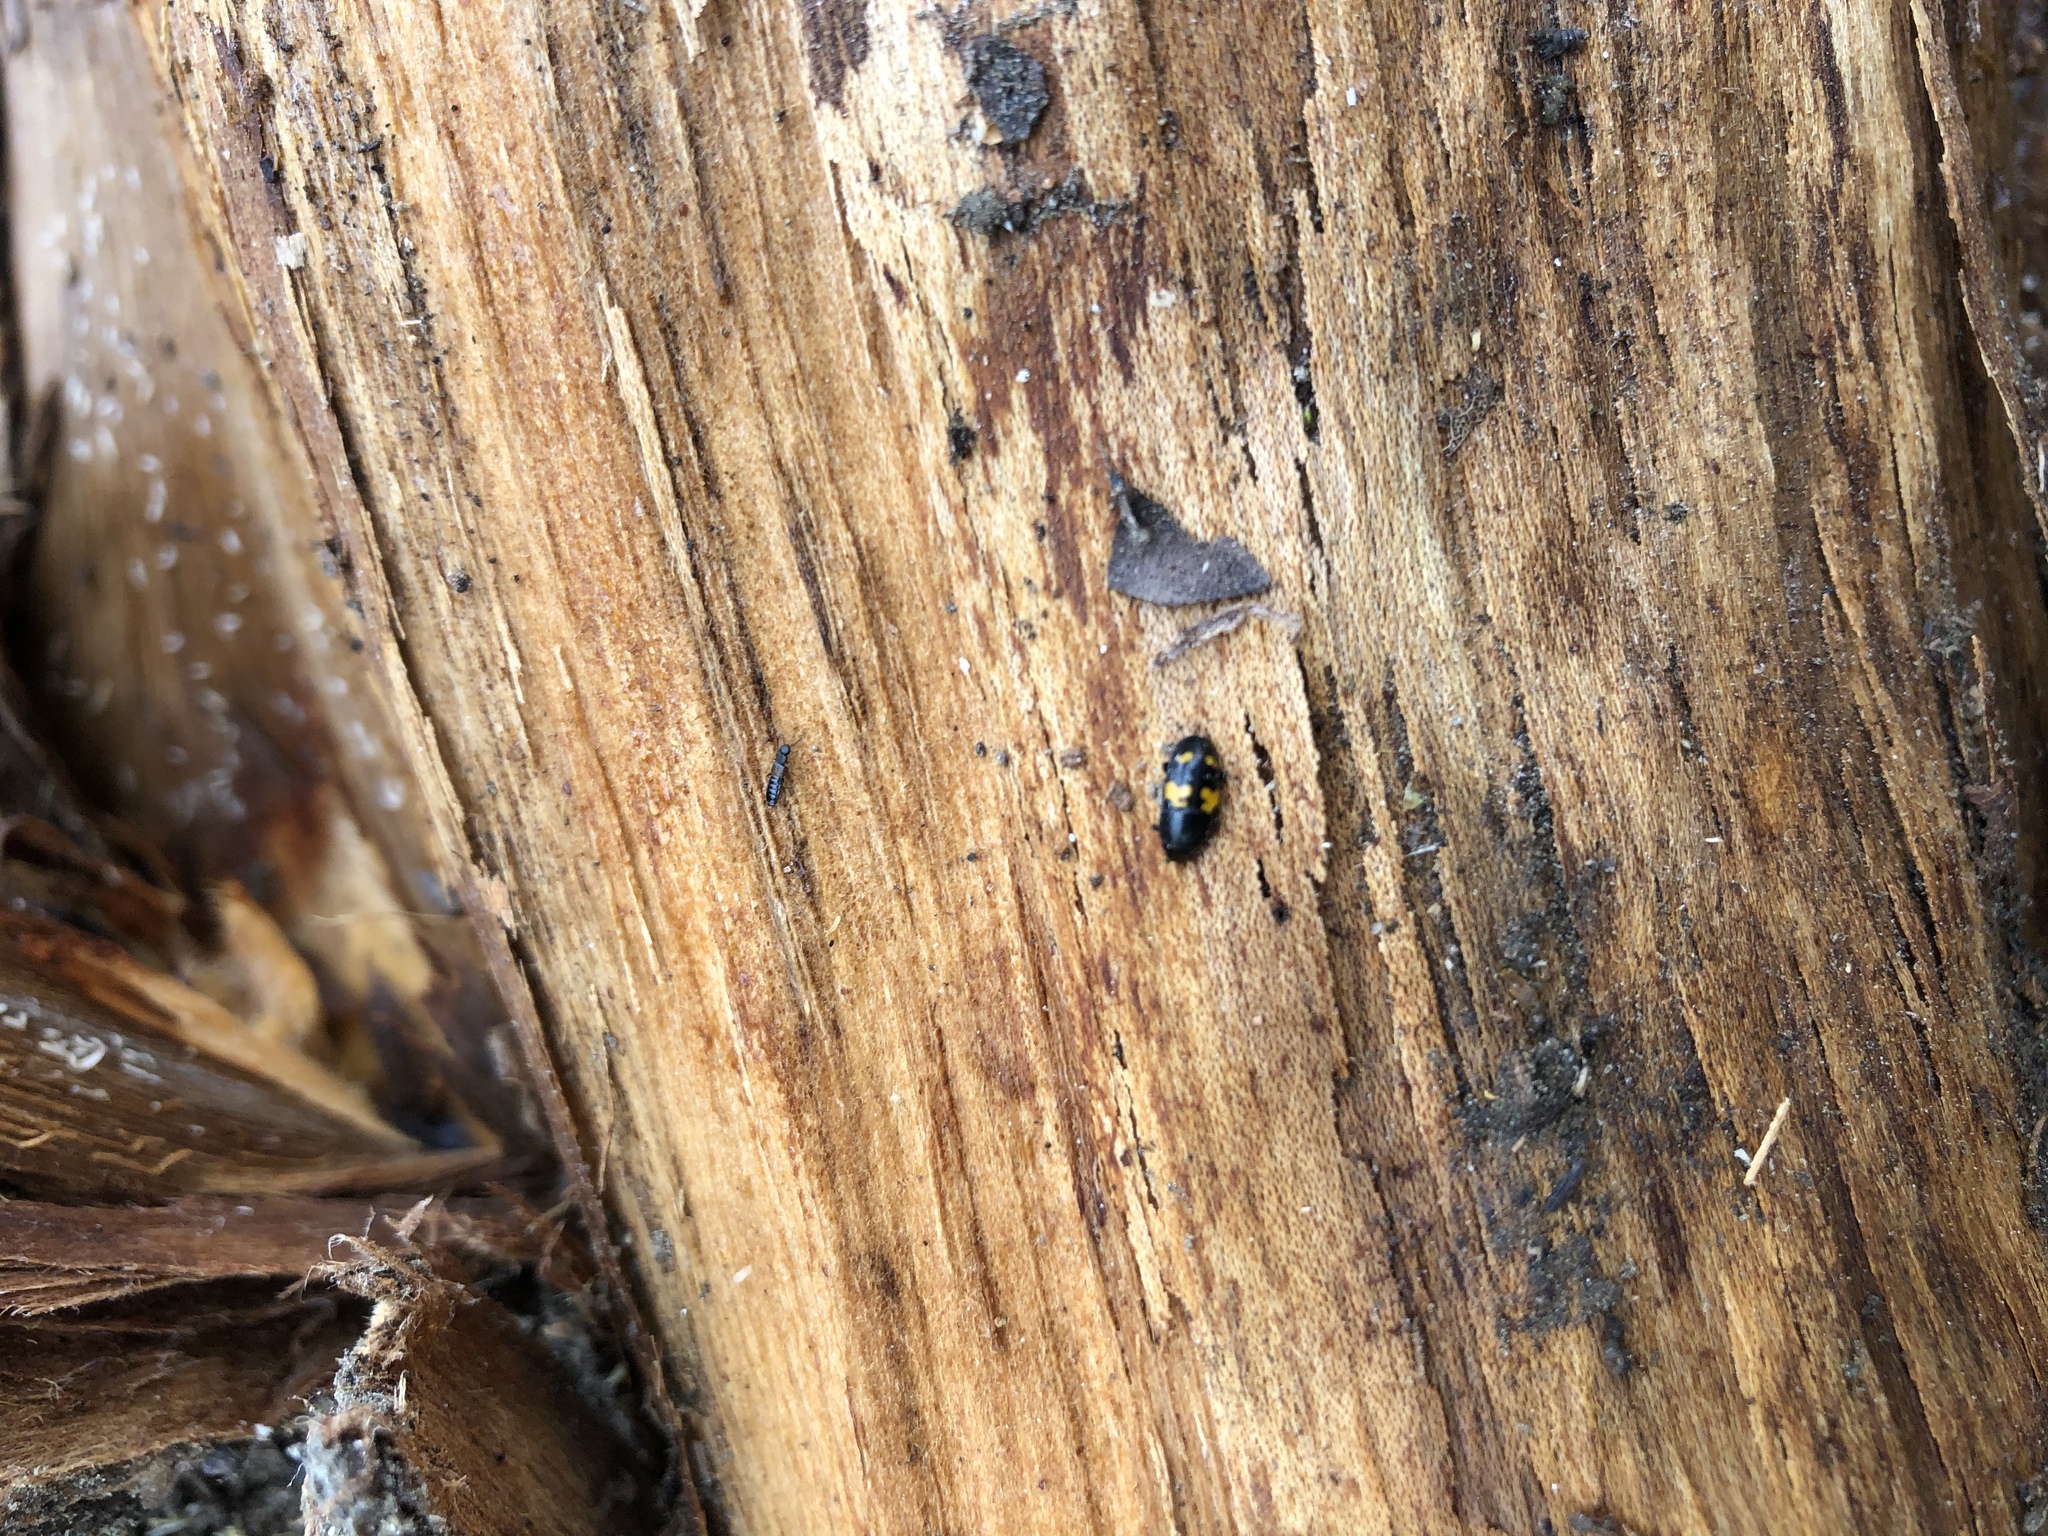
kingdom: Animalia
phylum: Arthropoda
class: Insecta
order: Coleoptera
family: Nitidulidae
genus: Glischrochilus
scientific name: Glischrochilus fasciatus
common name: Picnic beetle
